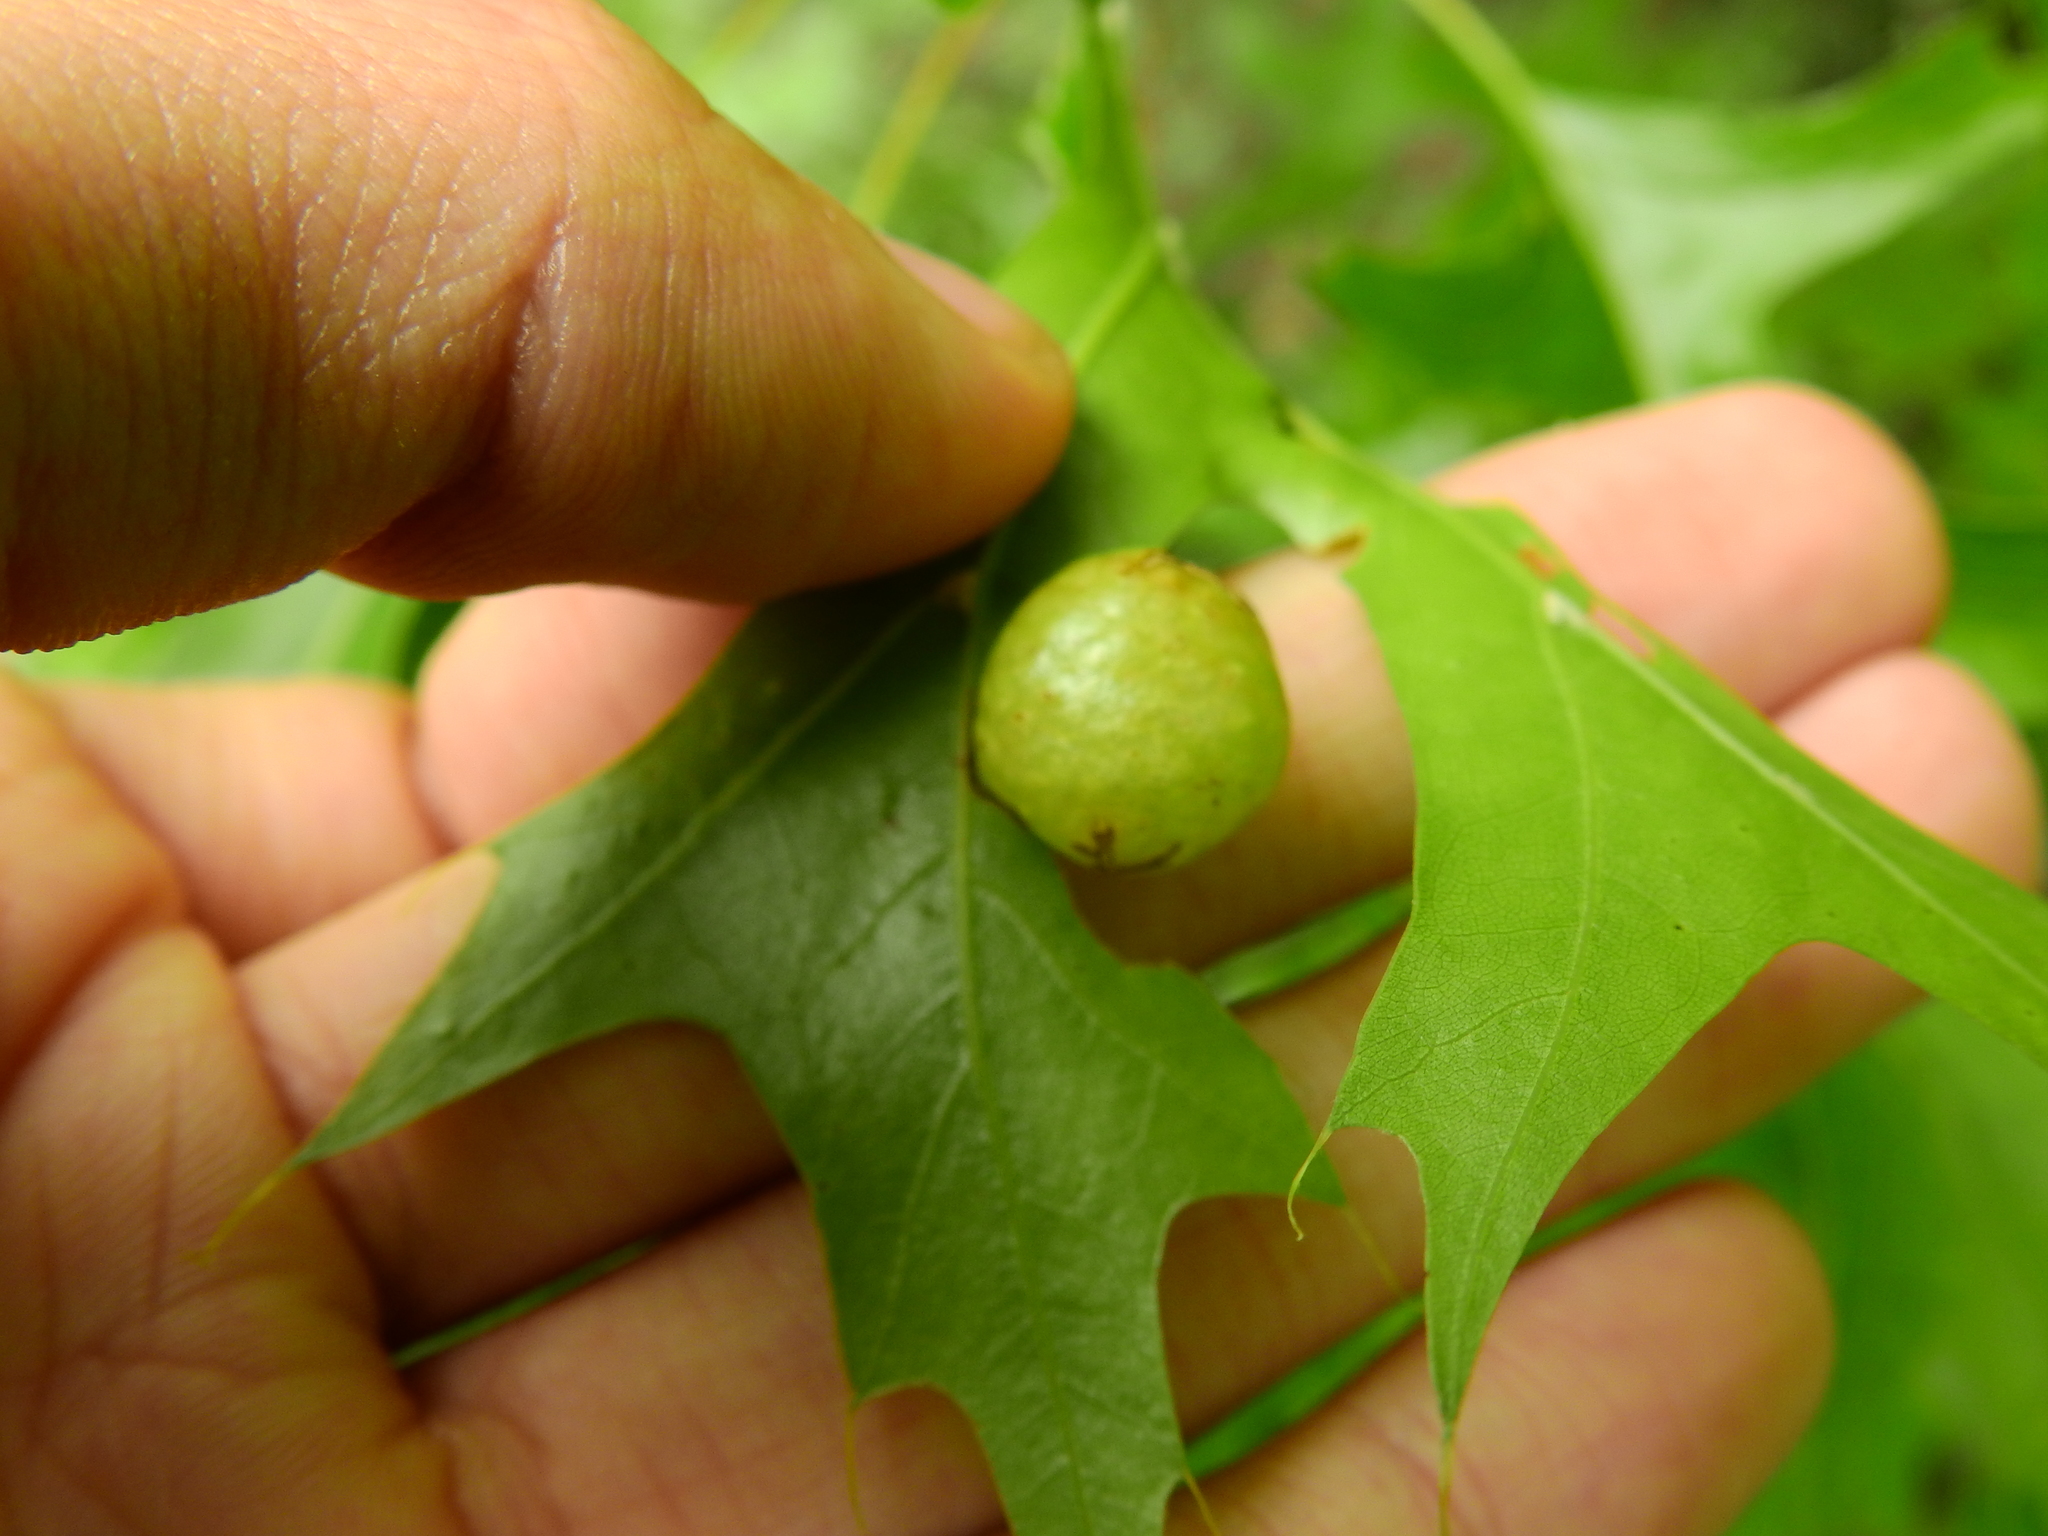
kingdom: Animalia
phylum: Arthropoda
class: Insecta
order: Hymenoptera
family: Cynipidae
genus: Amphibolips
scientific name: Amphibolips
